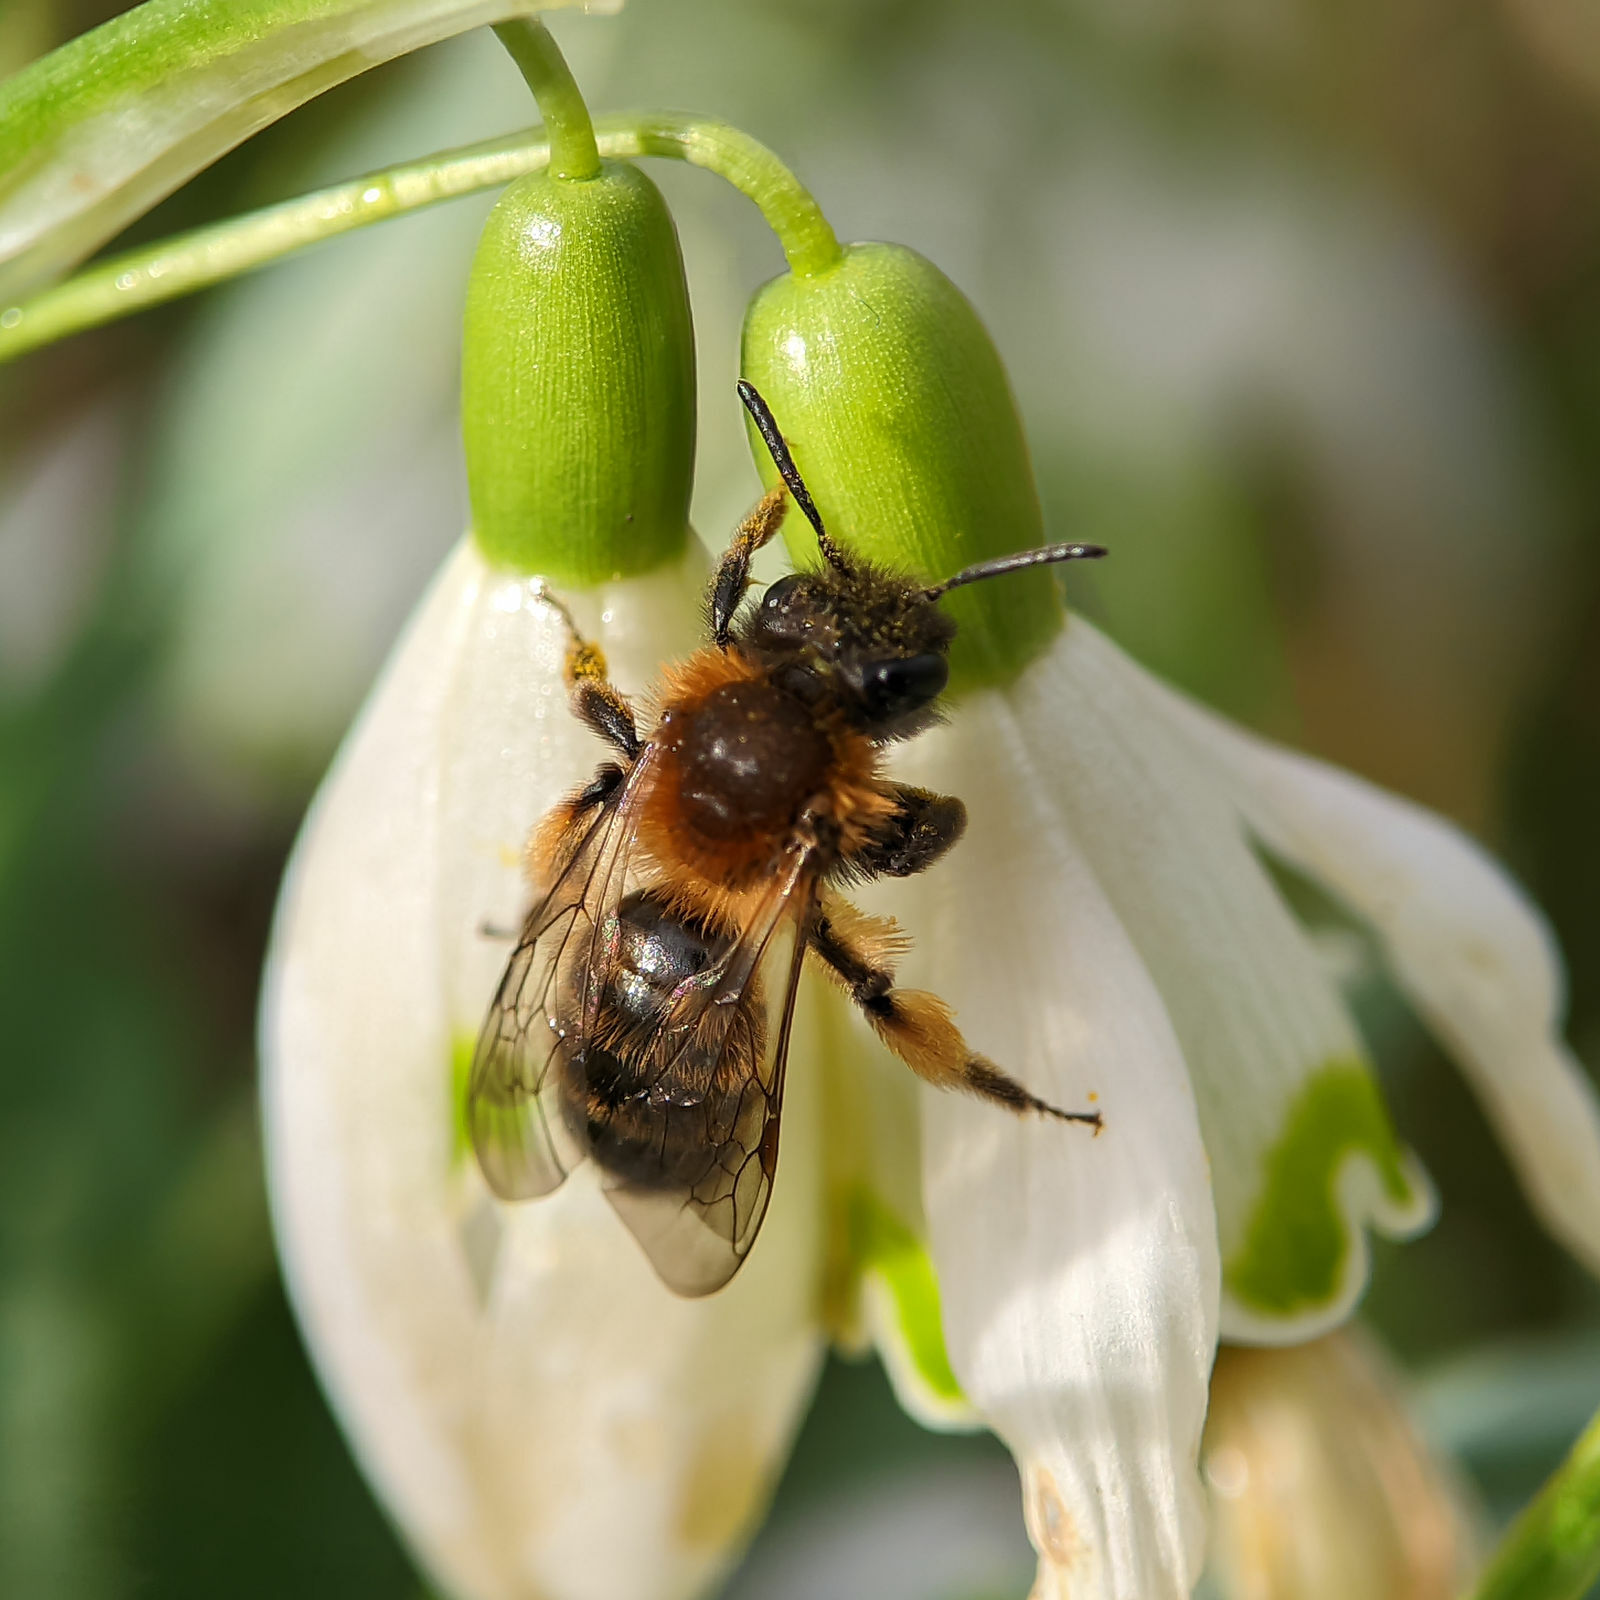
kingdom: Animalia
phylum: Arthropoda
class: Insecta
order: Hymenoptera
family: Andrenidae
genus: Andrena
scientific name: Andrena bicolor
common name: Gwynne's mining bee
